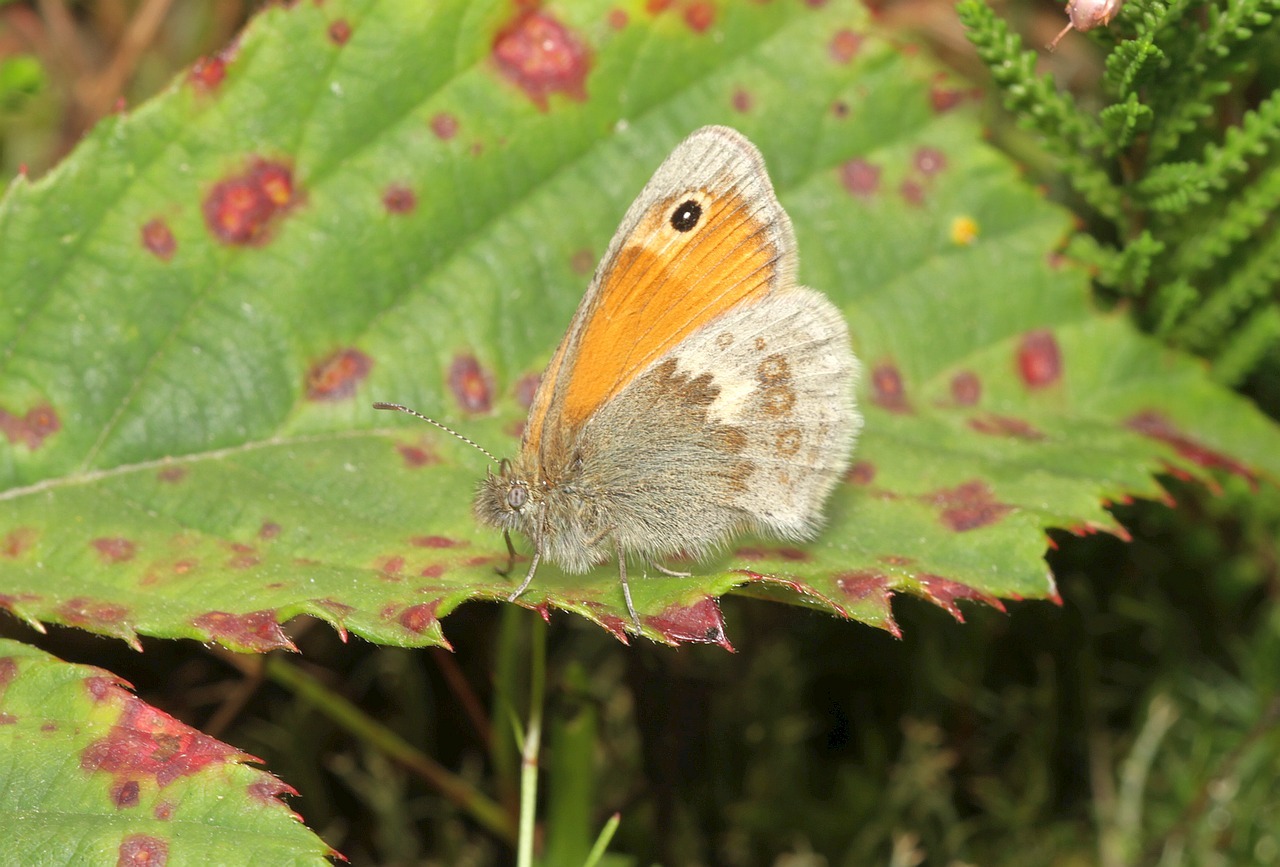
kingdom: Animalia
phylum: Arthropoda
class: Insecta
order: Lepidoptera
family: Nymphalidae
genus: Coenonympha
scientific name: Coenonympha pamphilus
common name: Small heath
